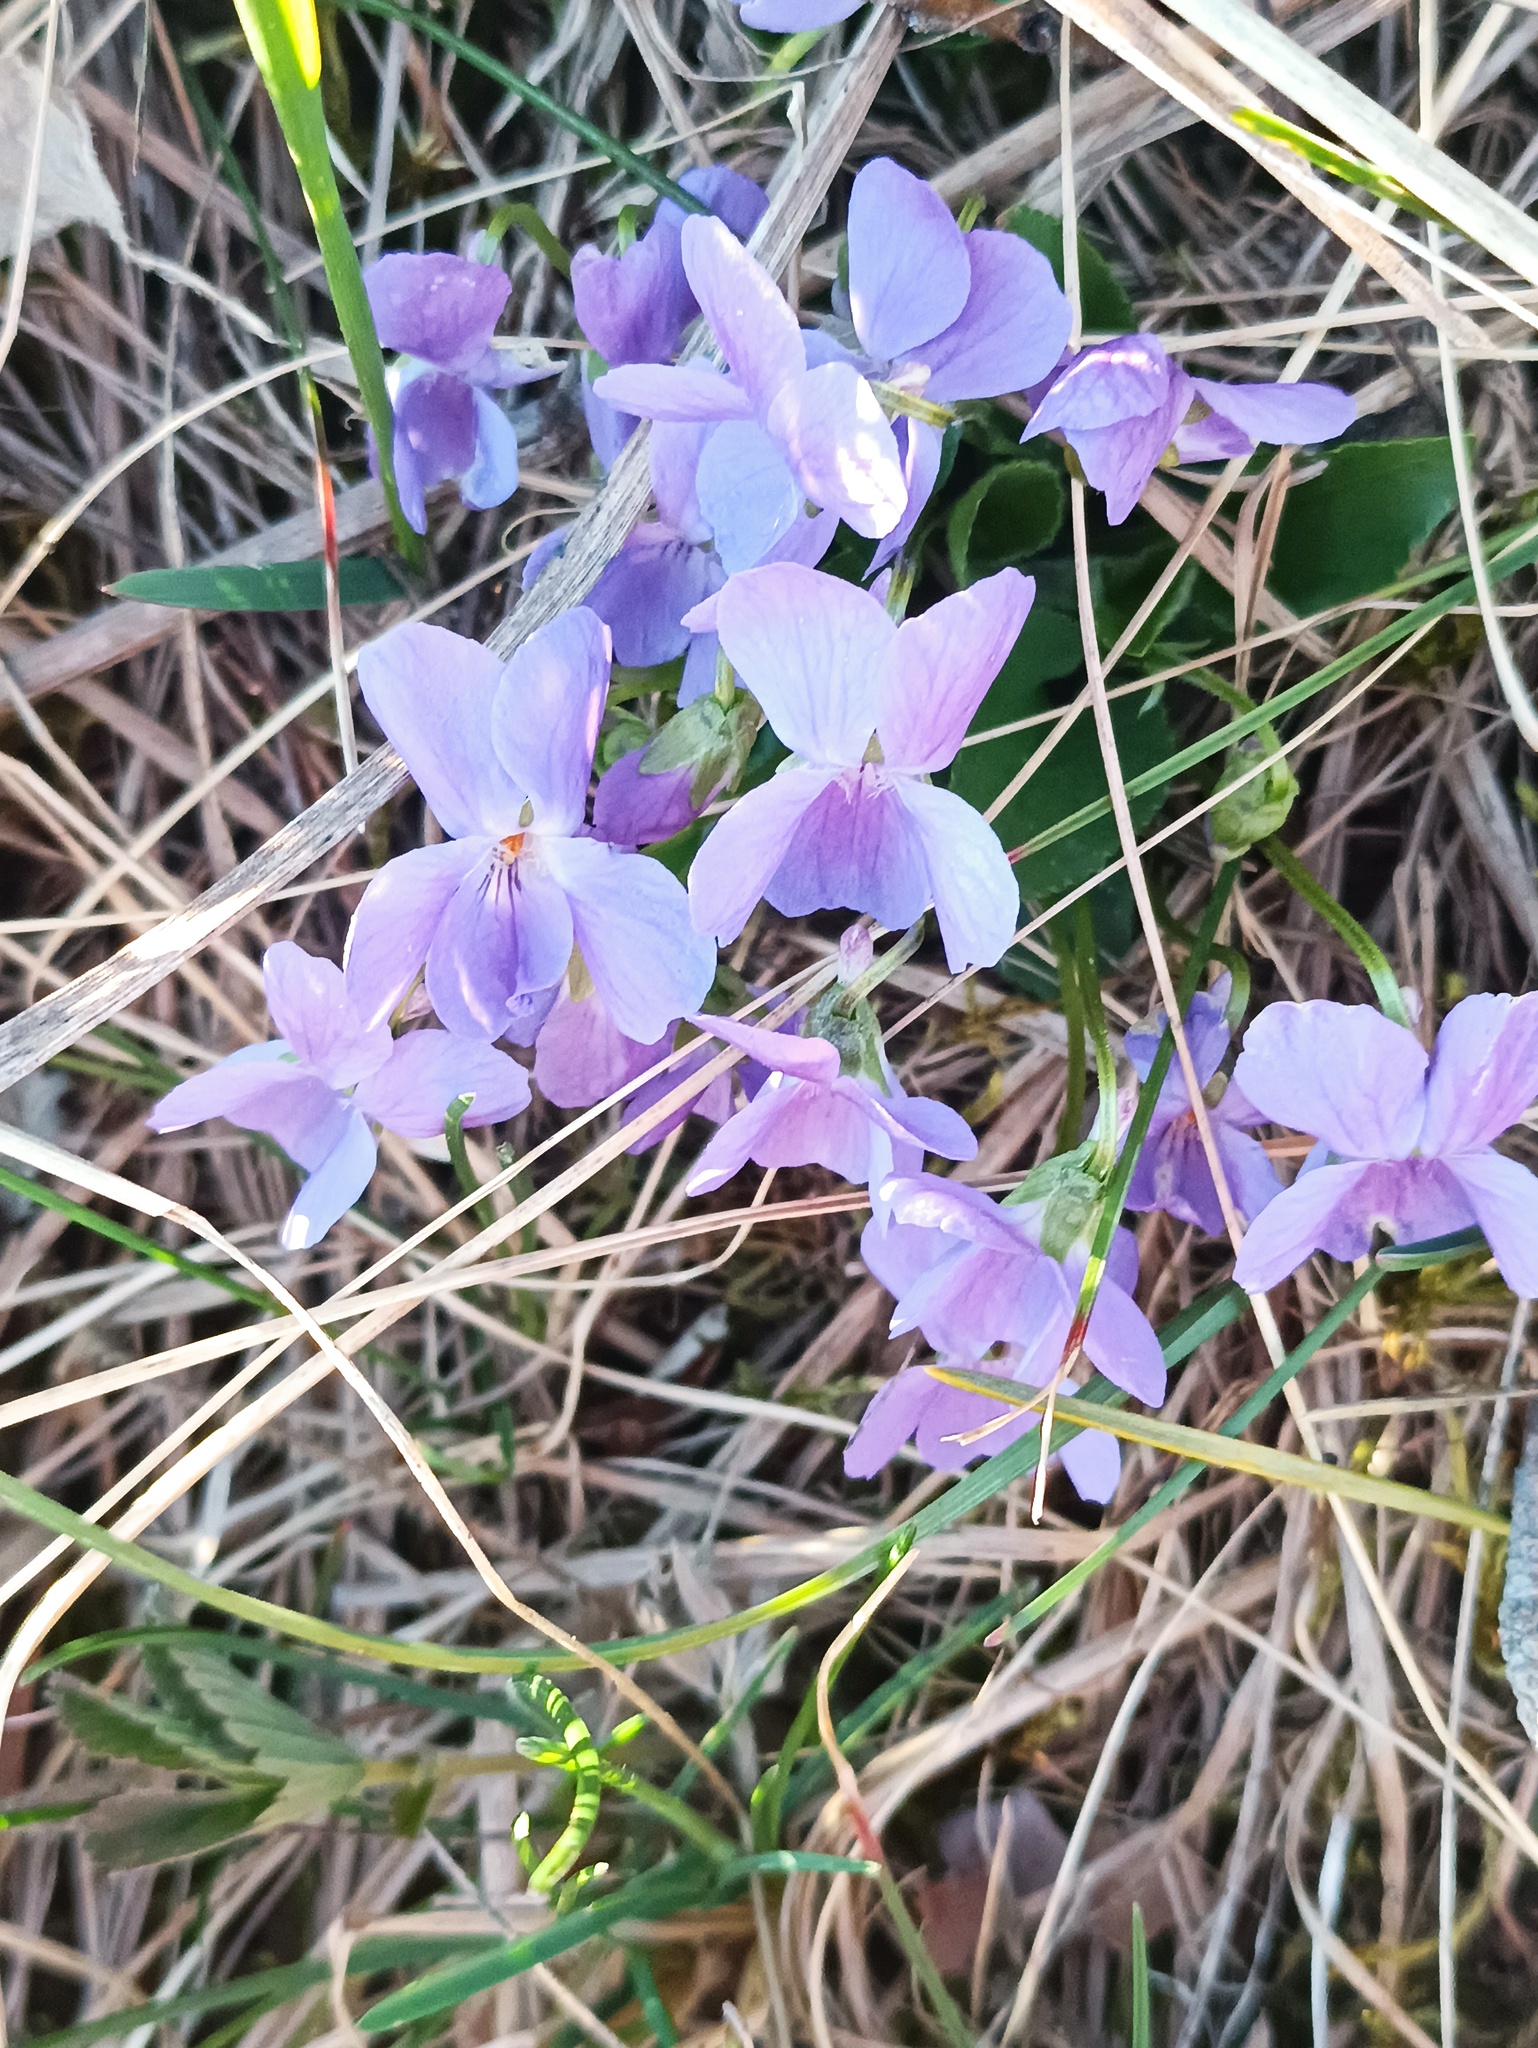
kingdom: Plantae
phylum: Tracheophyta
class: Magnoliopsida
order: Malpighiales
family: Violaceae
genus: Viola
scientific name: Viola hirta
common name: Hairy violet
